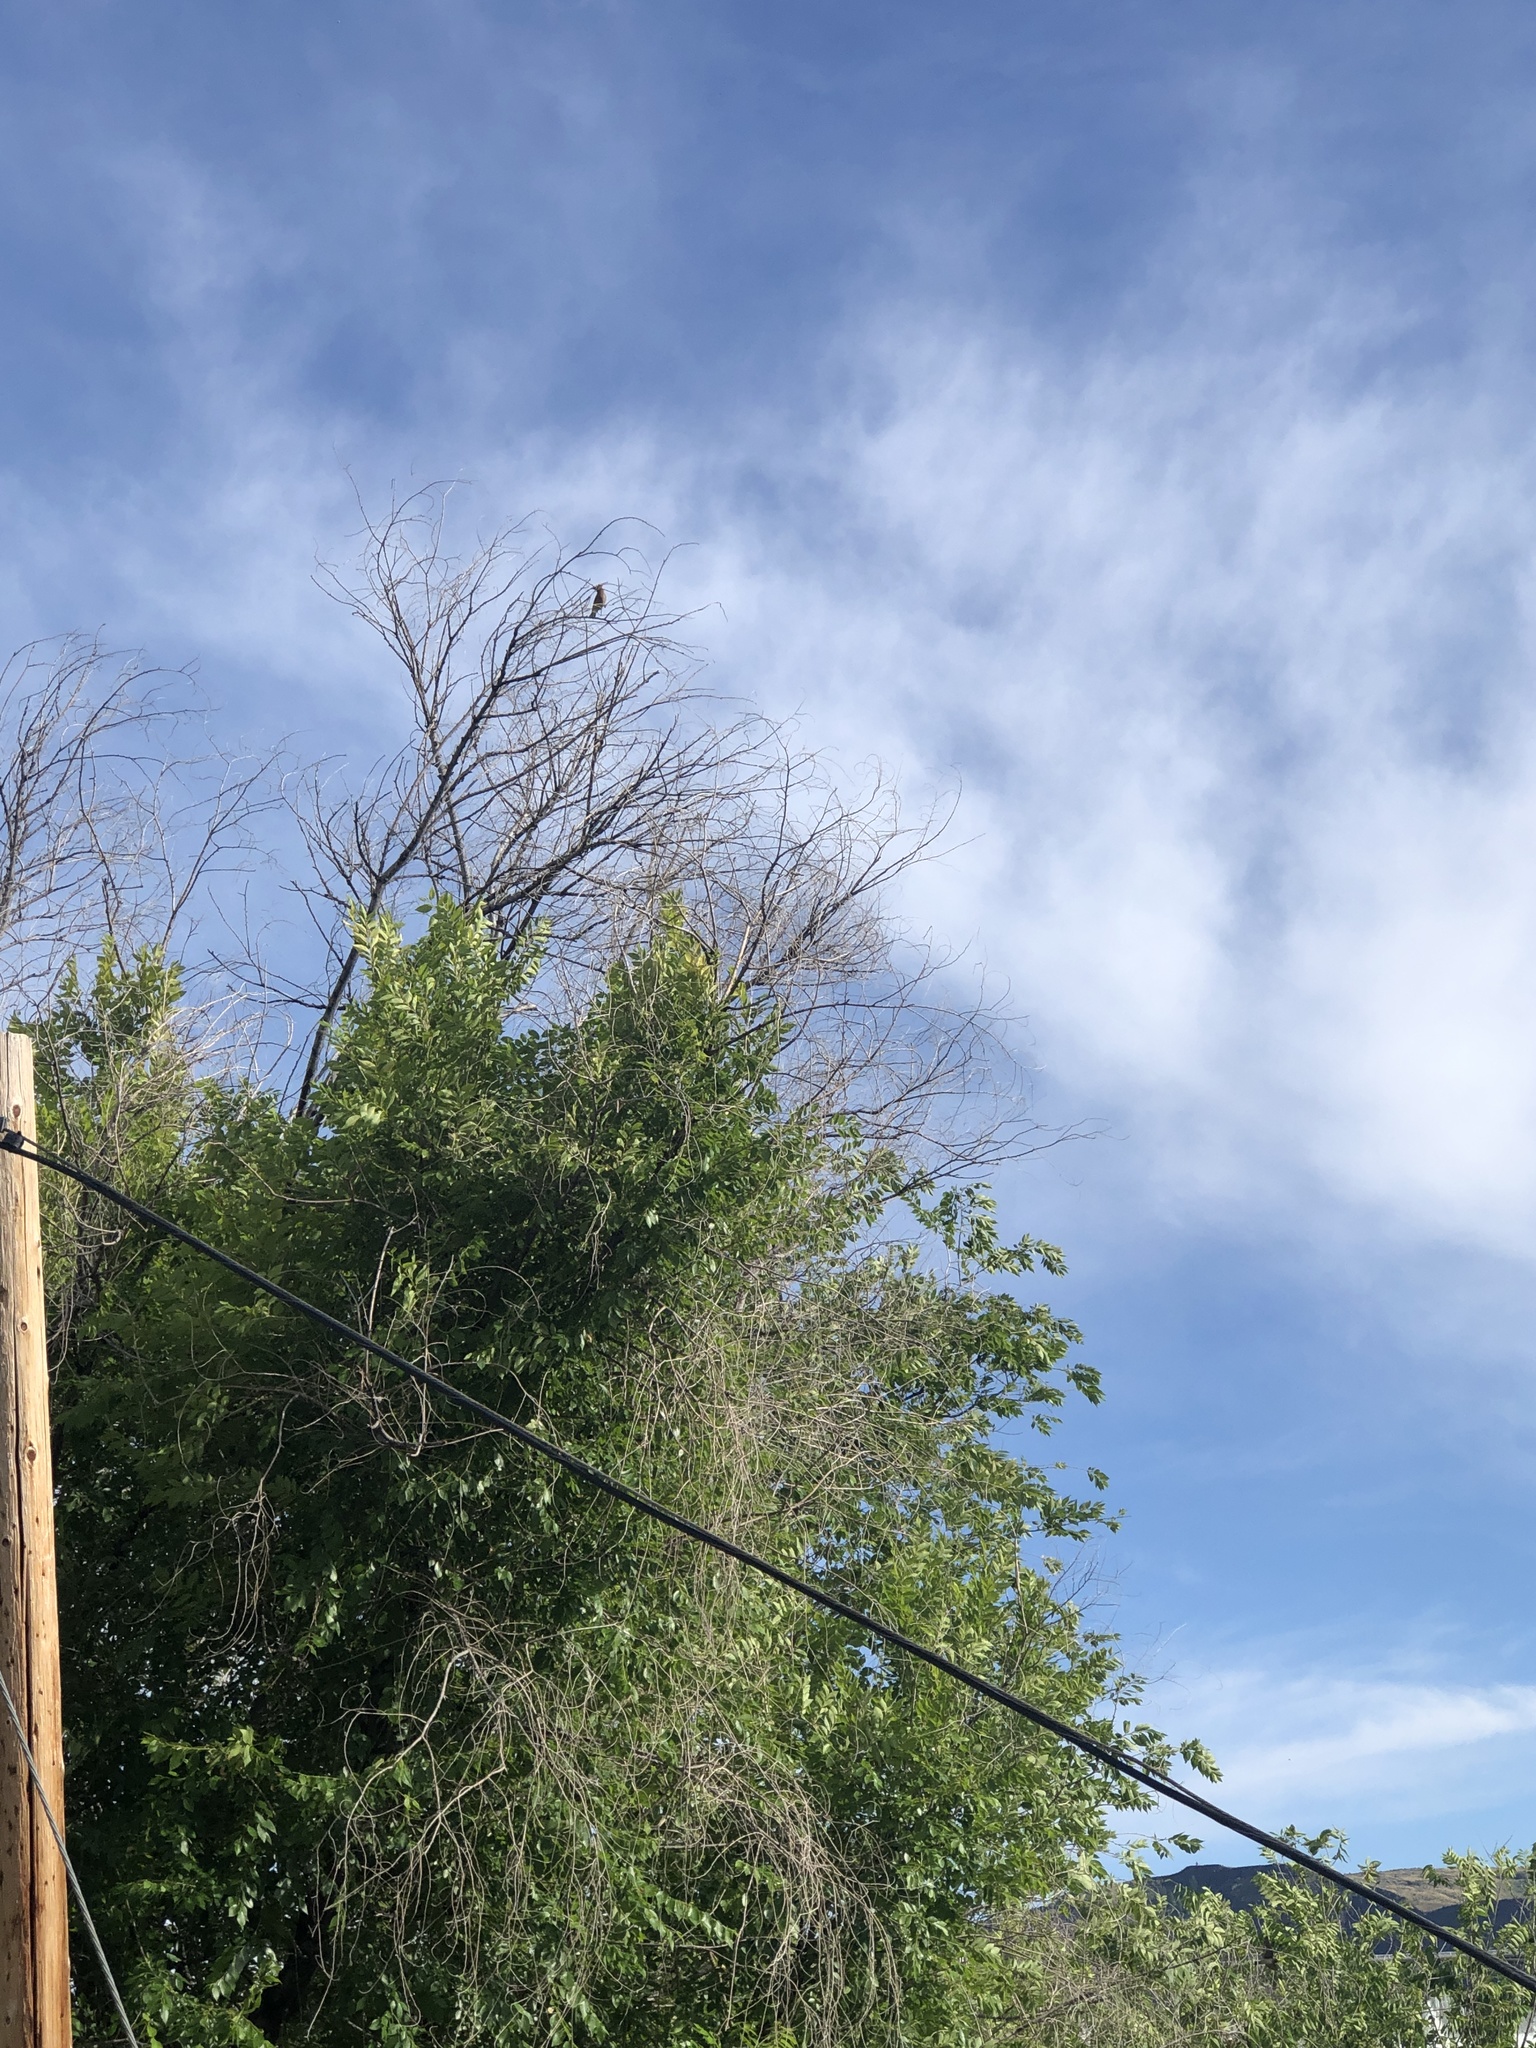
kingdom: Animalia
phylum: Chordata
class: Aves
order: Passeriformes
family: Bombycillidae
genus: Bombycilla
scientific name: Bombycilla cedrorum
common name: Cedar waxwing
